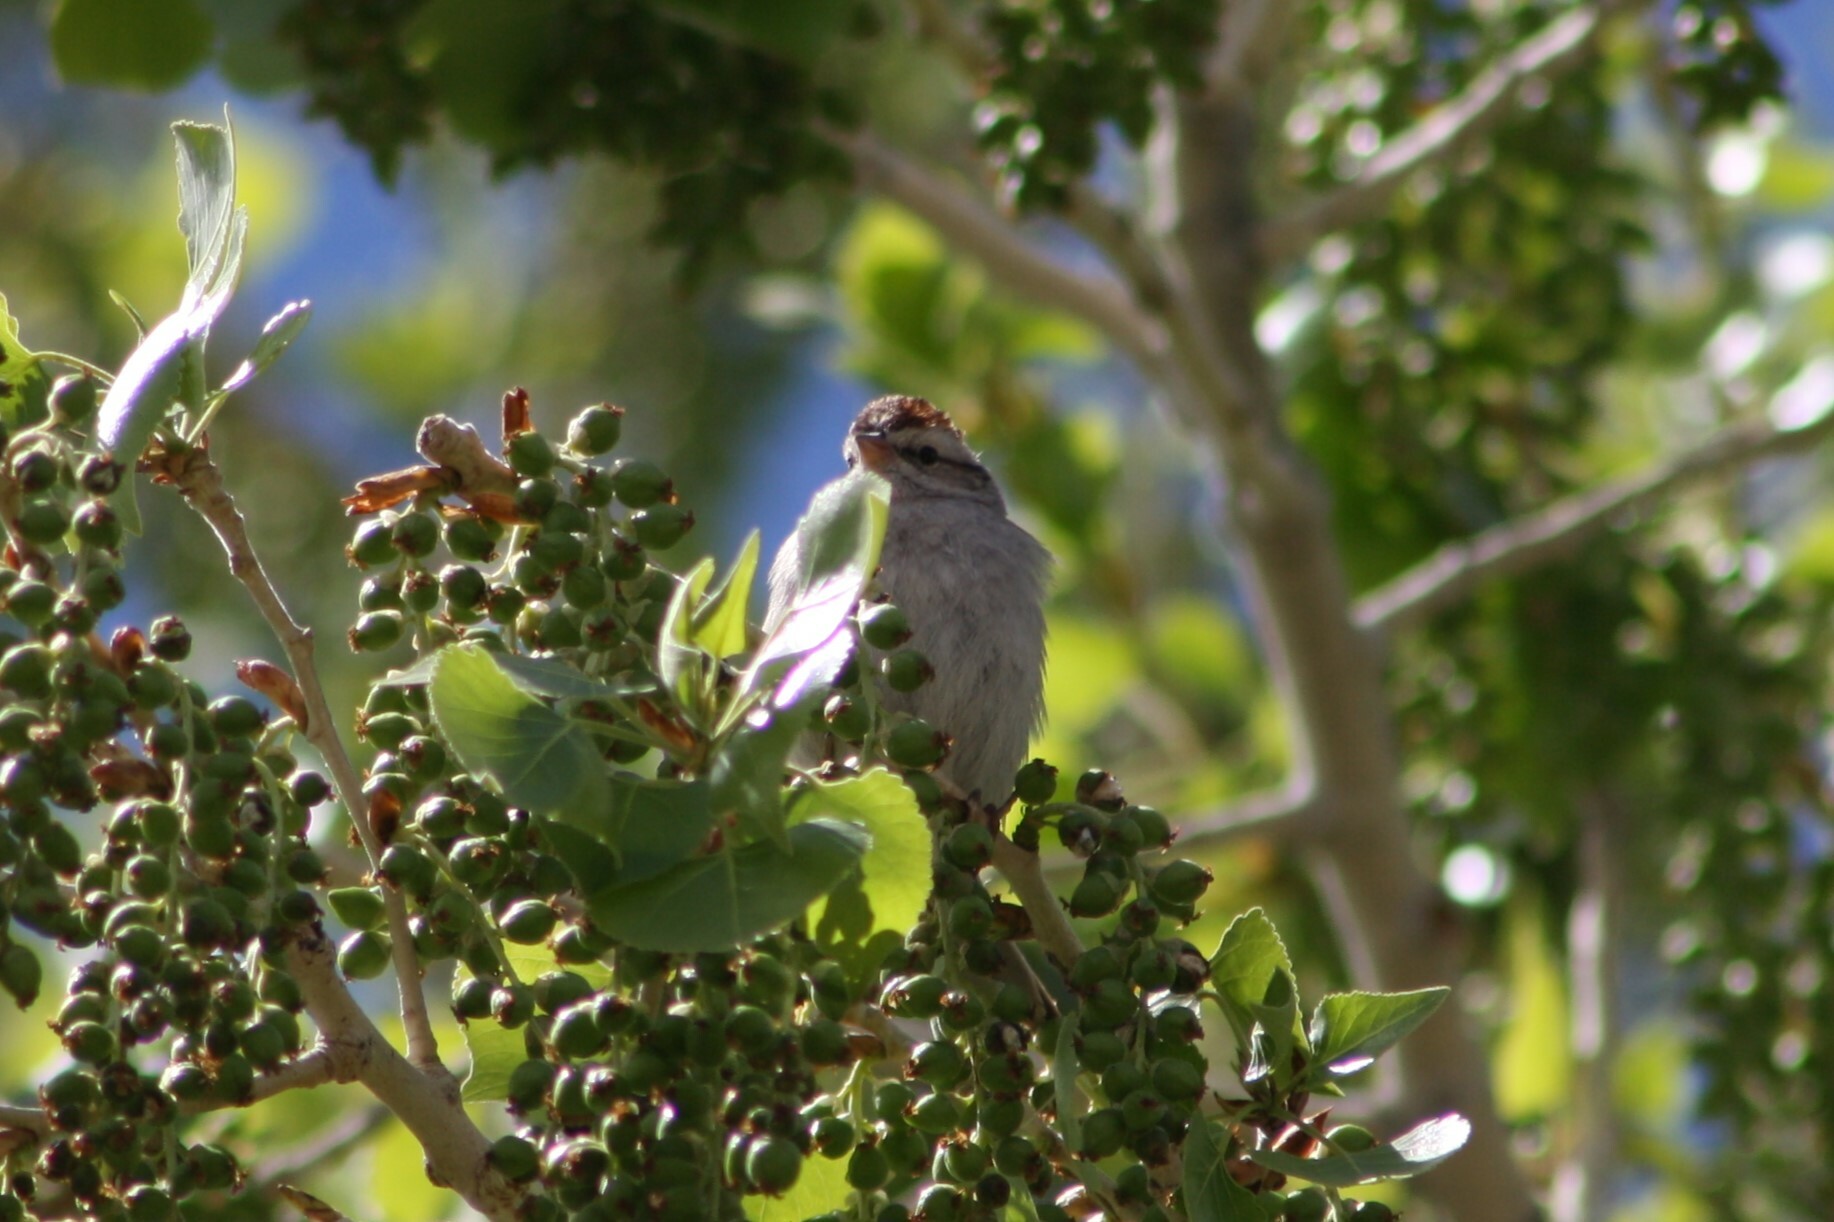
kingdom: Animalia
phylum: Chordata
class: Aves
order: Passeriformes
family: Passerellidae
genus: Spizella
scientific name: Spizella passerina
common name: Chipping sparrow
